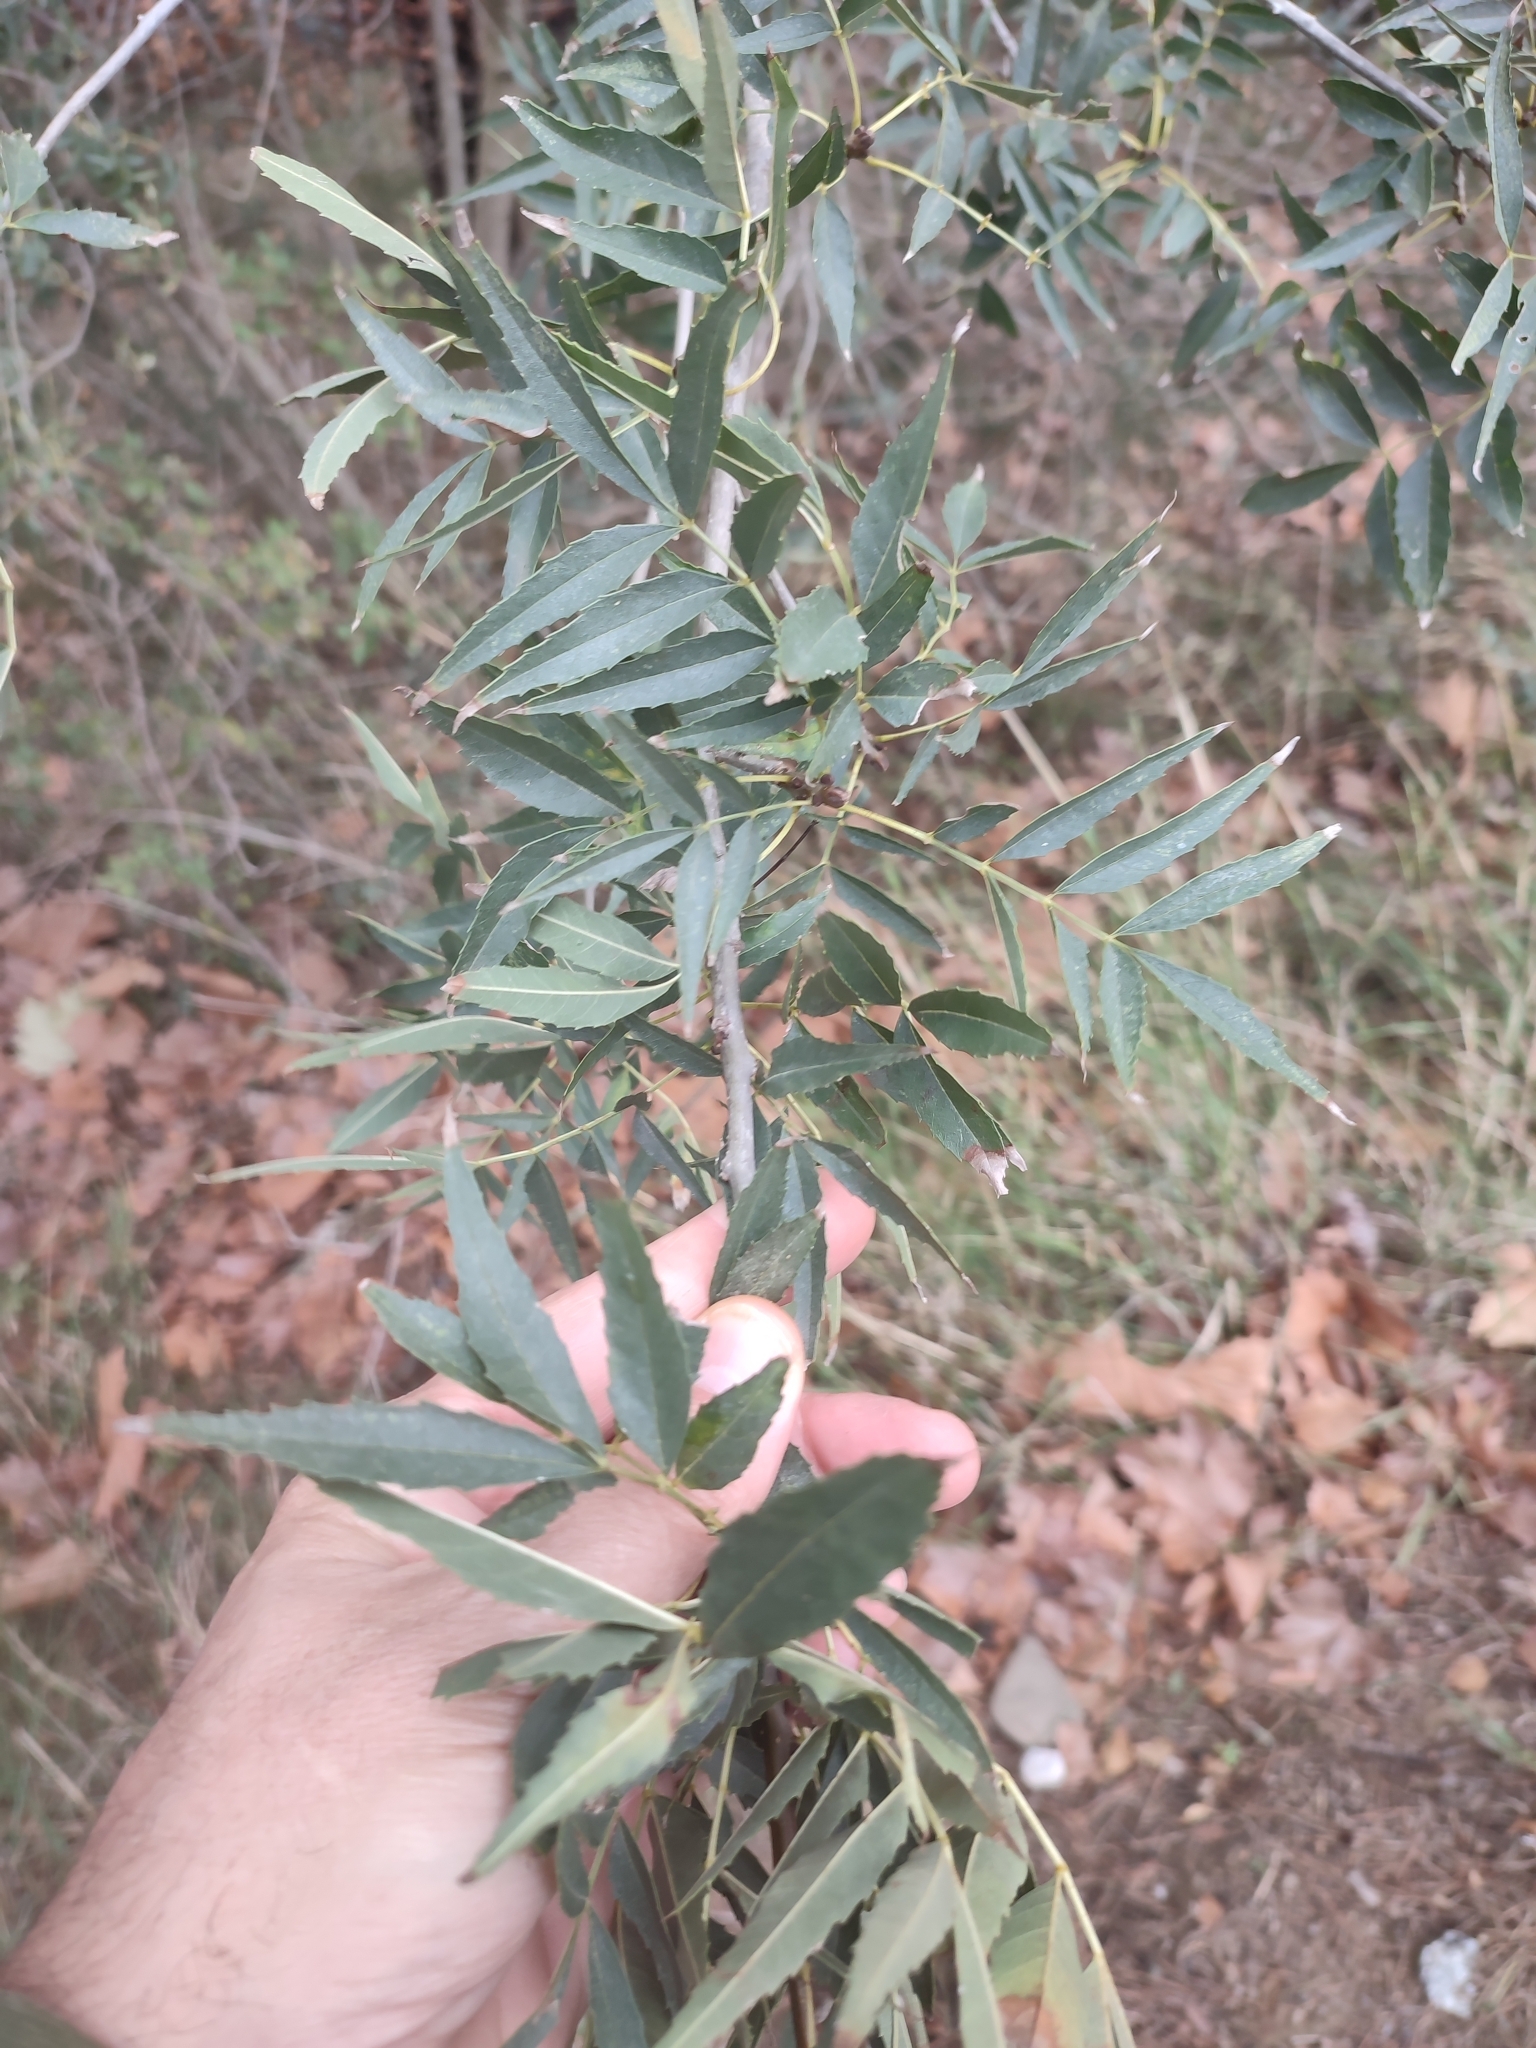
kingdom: Plantae
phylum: Tracheophyta
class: Magnoliopsida
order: Lamiales
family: Oleaceae
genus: Fraxinus
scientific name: Fraxinus angustifolia
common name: Narrow-leafed ash
